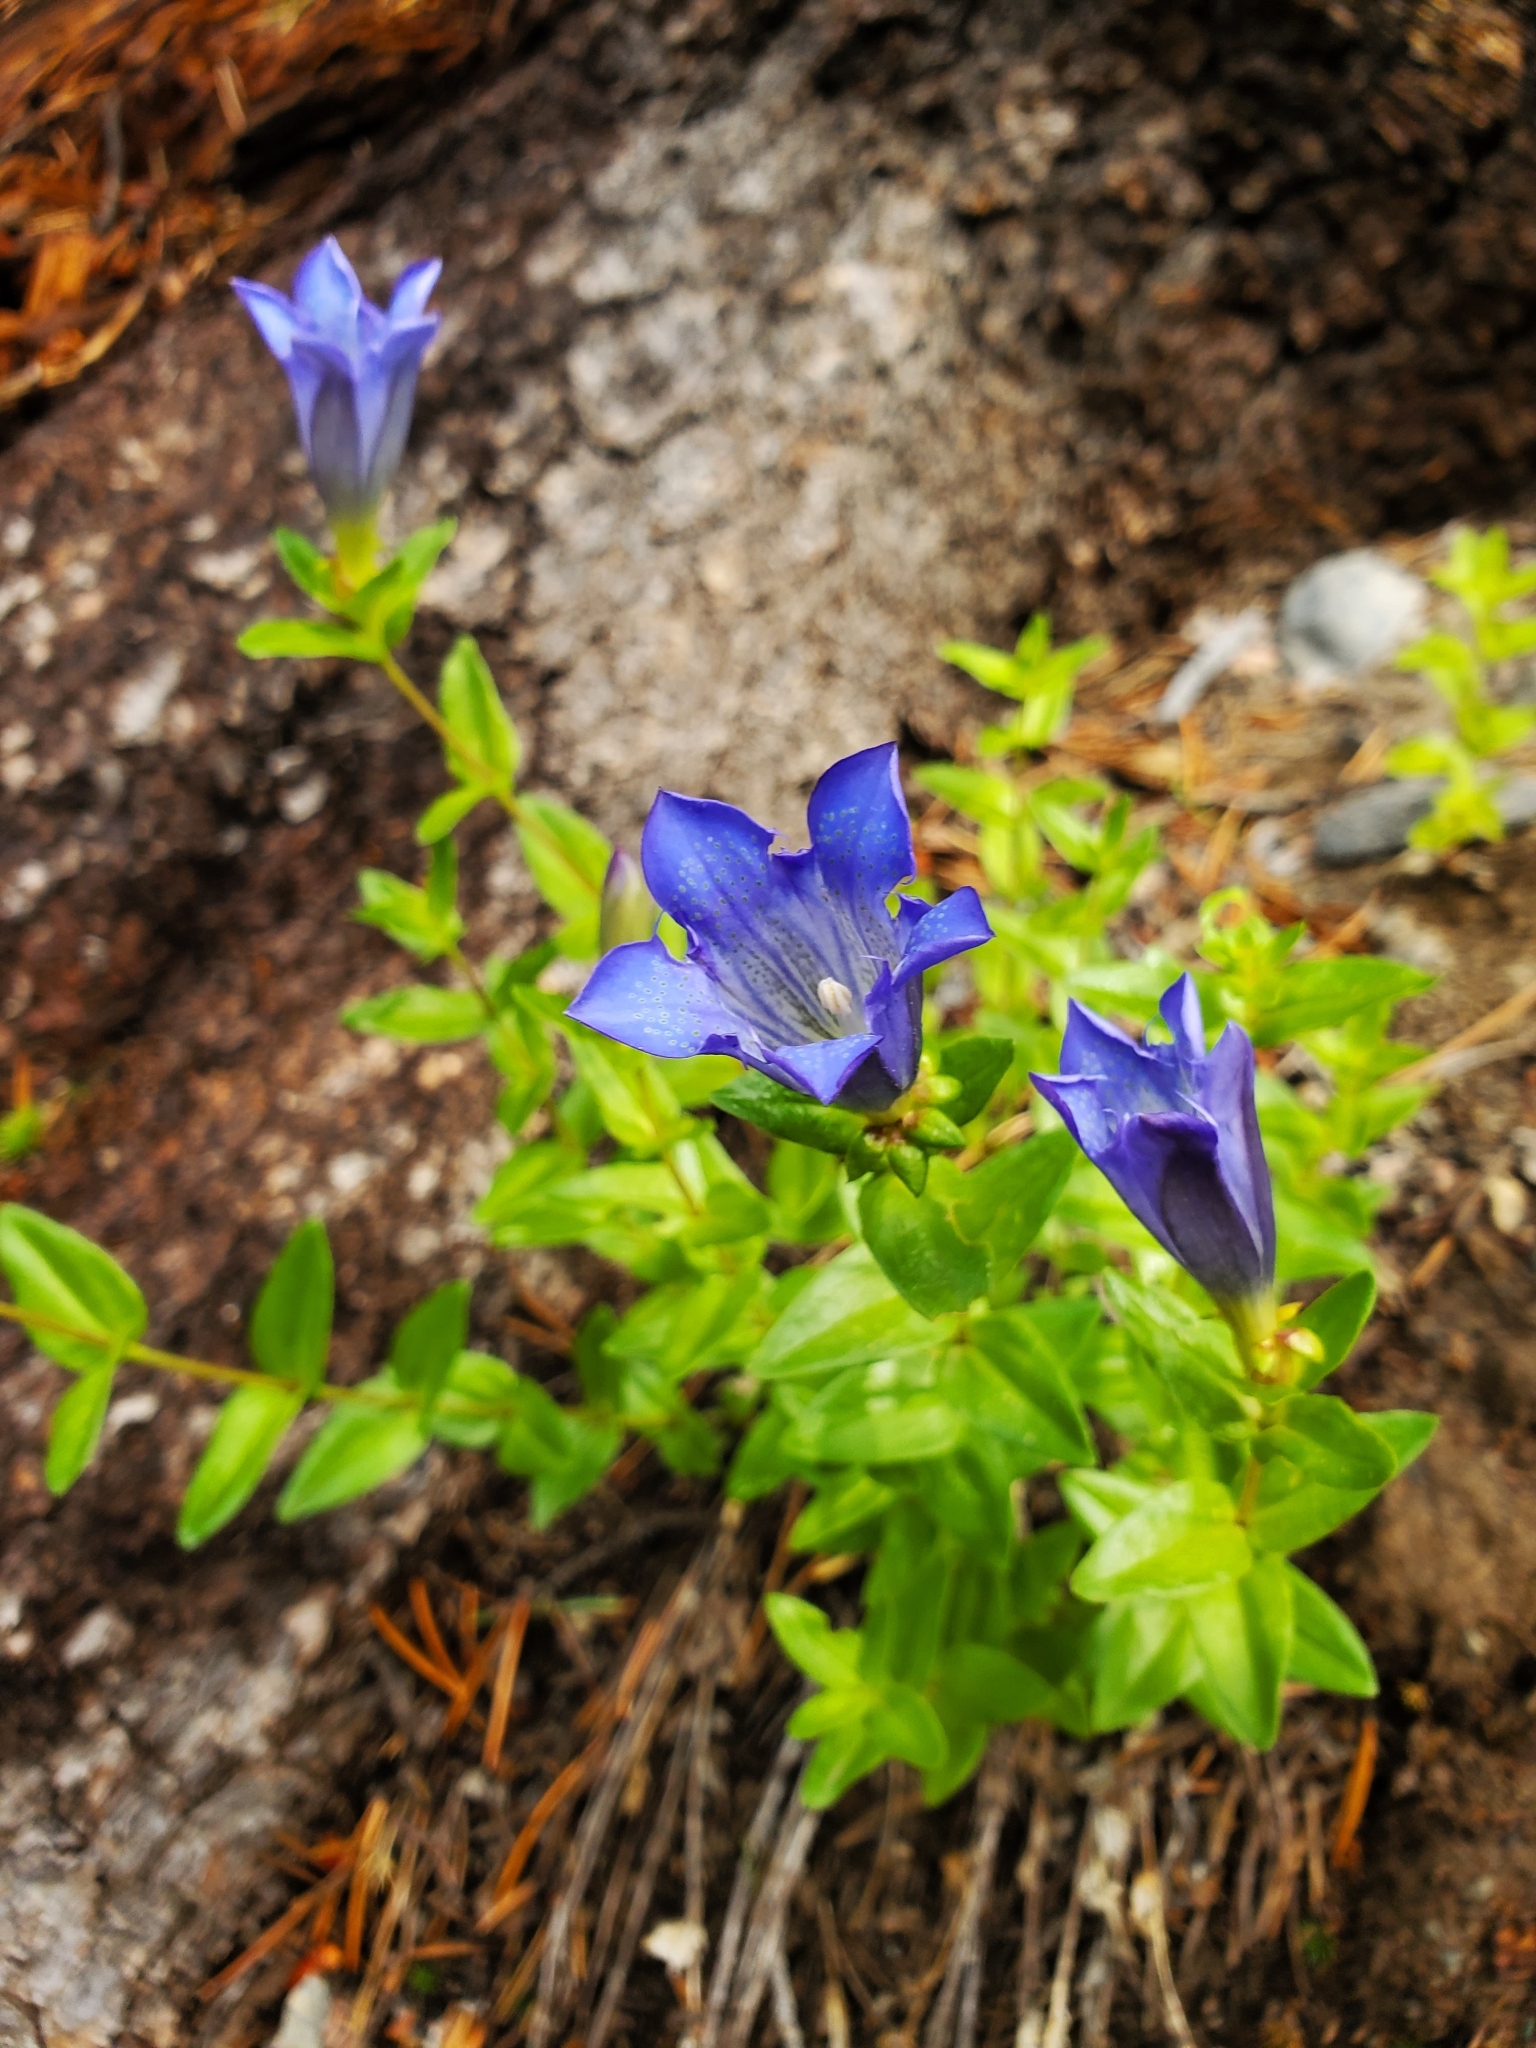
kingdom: Plantae
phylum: Tracheophyta
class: Magnoliopsida
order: Gentianales
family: Gentianaceae
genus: Gentiana
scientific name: Gentiana calycosa
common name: Rainier pleated gentian
